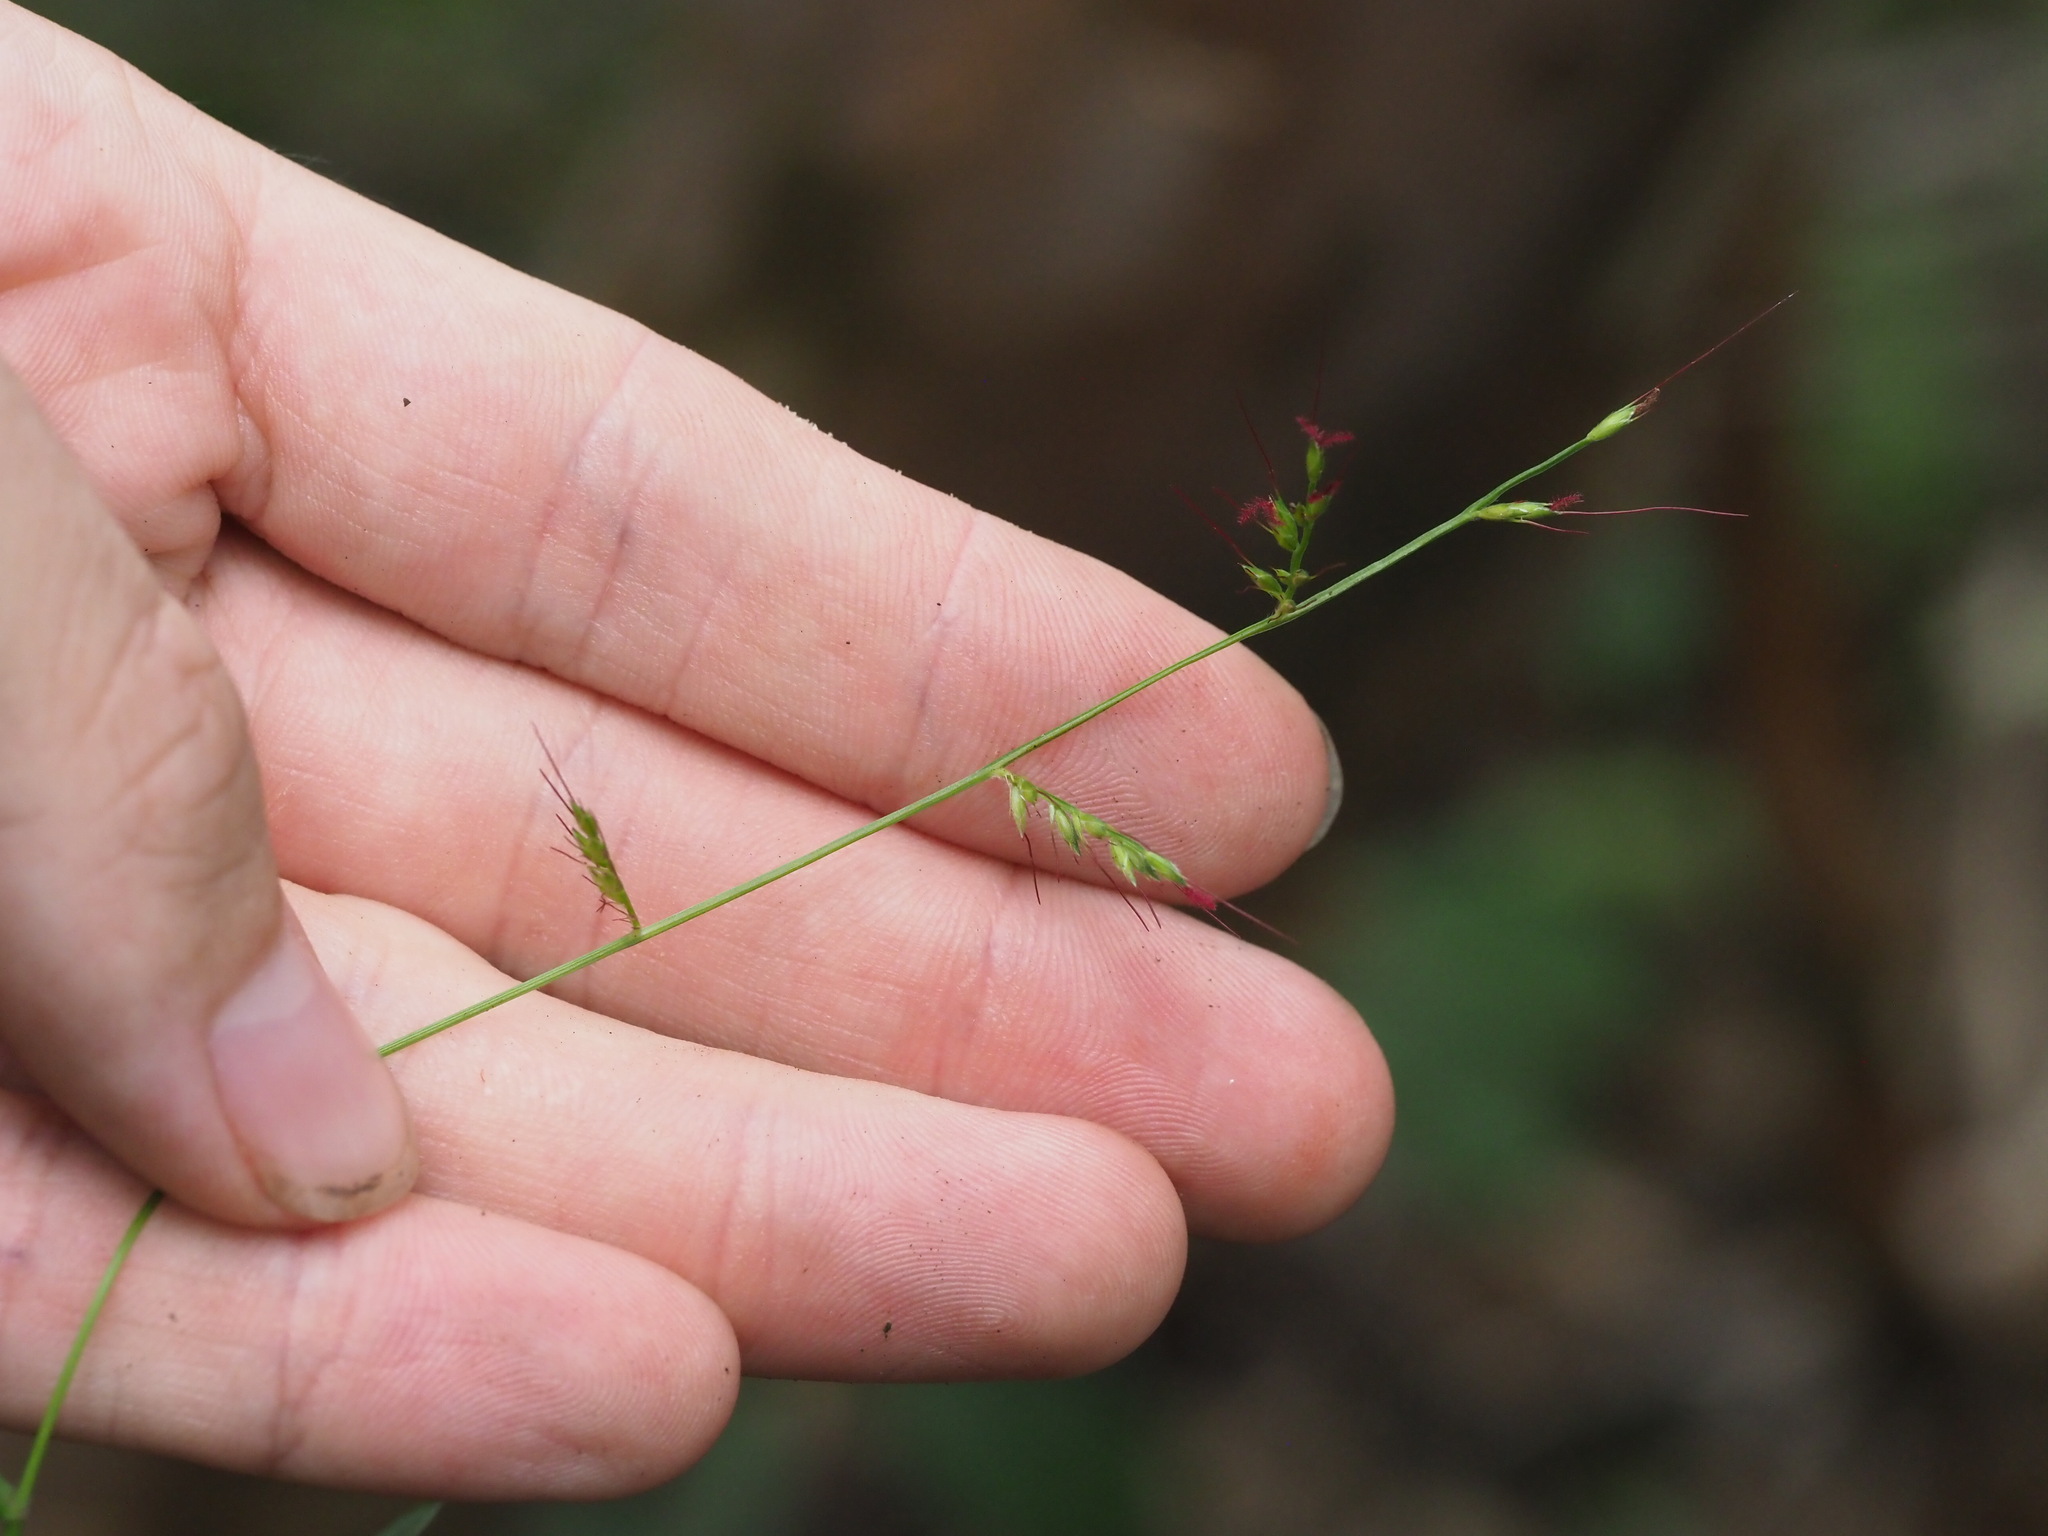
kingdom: Plantae
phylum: Tracheophyta
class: Liliopsida
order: Poales
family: Poaceae
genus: Oplismenus
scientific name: Oplismenus hirtellus
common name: Basketgrass
